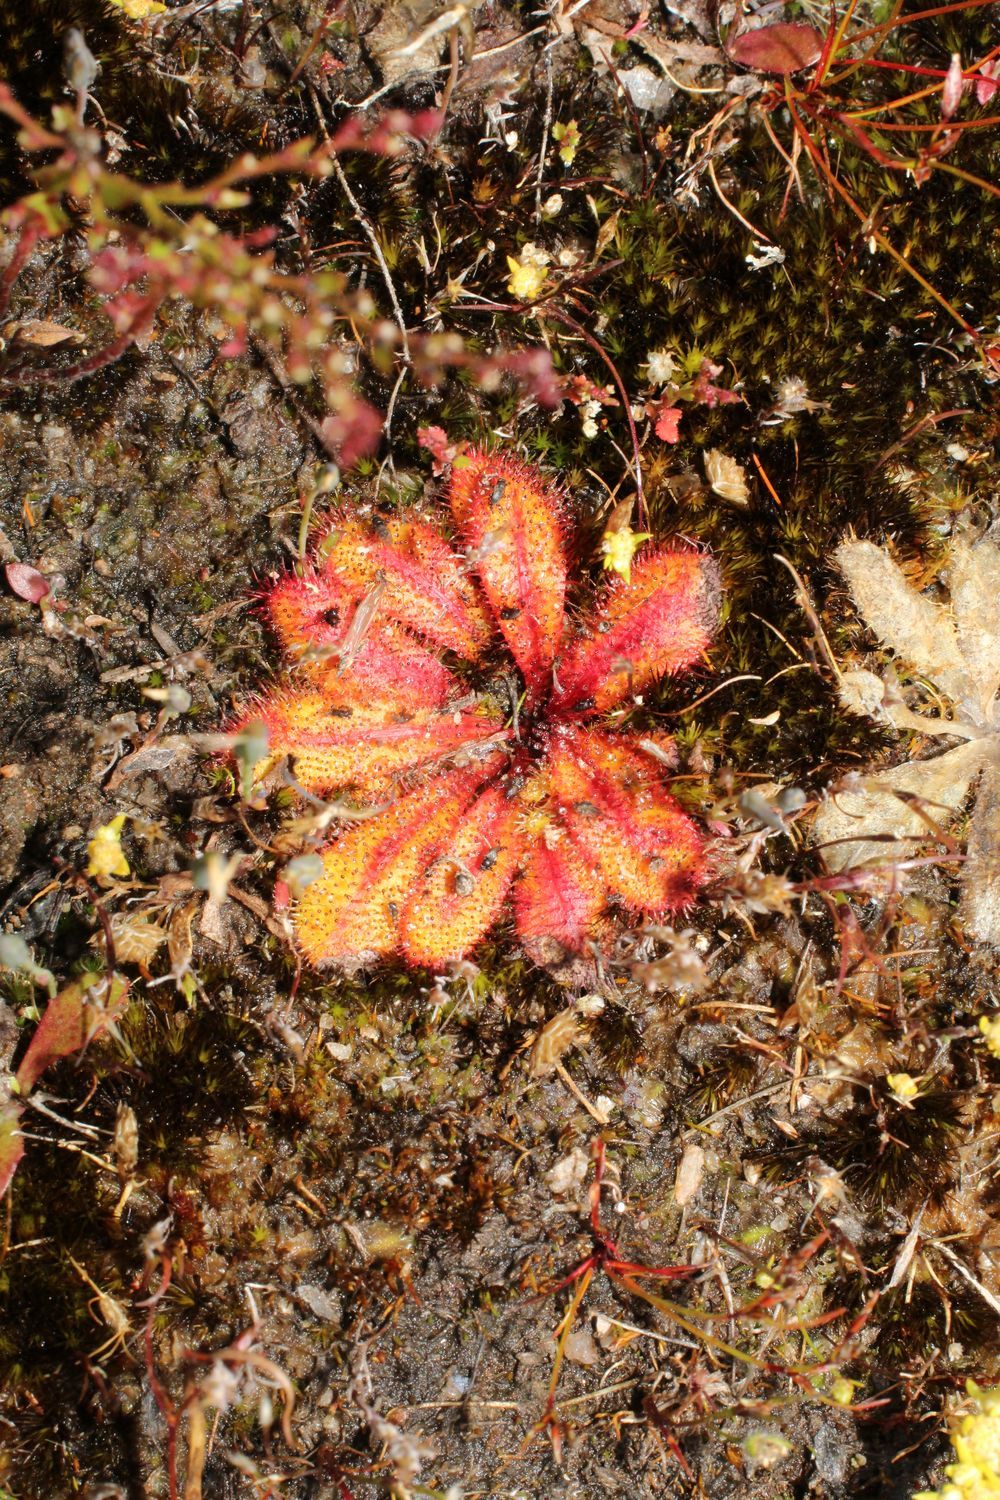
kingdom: Plantae
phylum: Tracheophyta
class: Magnoliopsida
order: Caryophyllales
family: Droseraceae
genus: Drosera
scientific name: Drosera bulbosa
